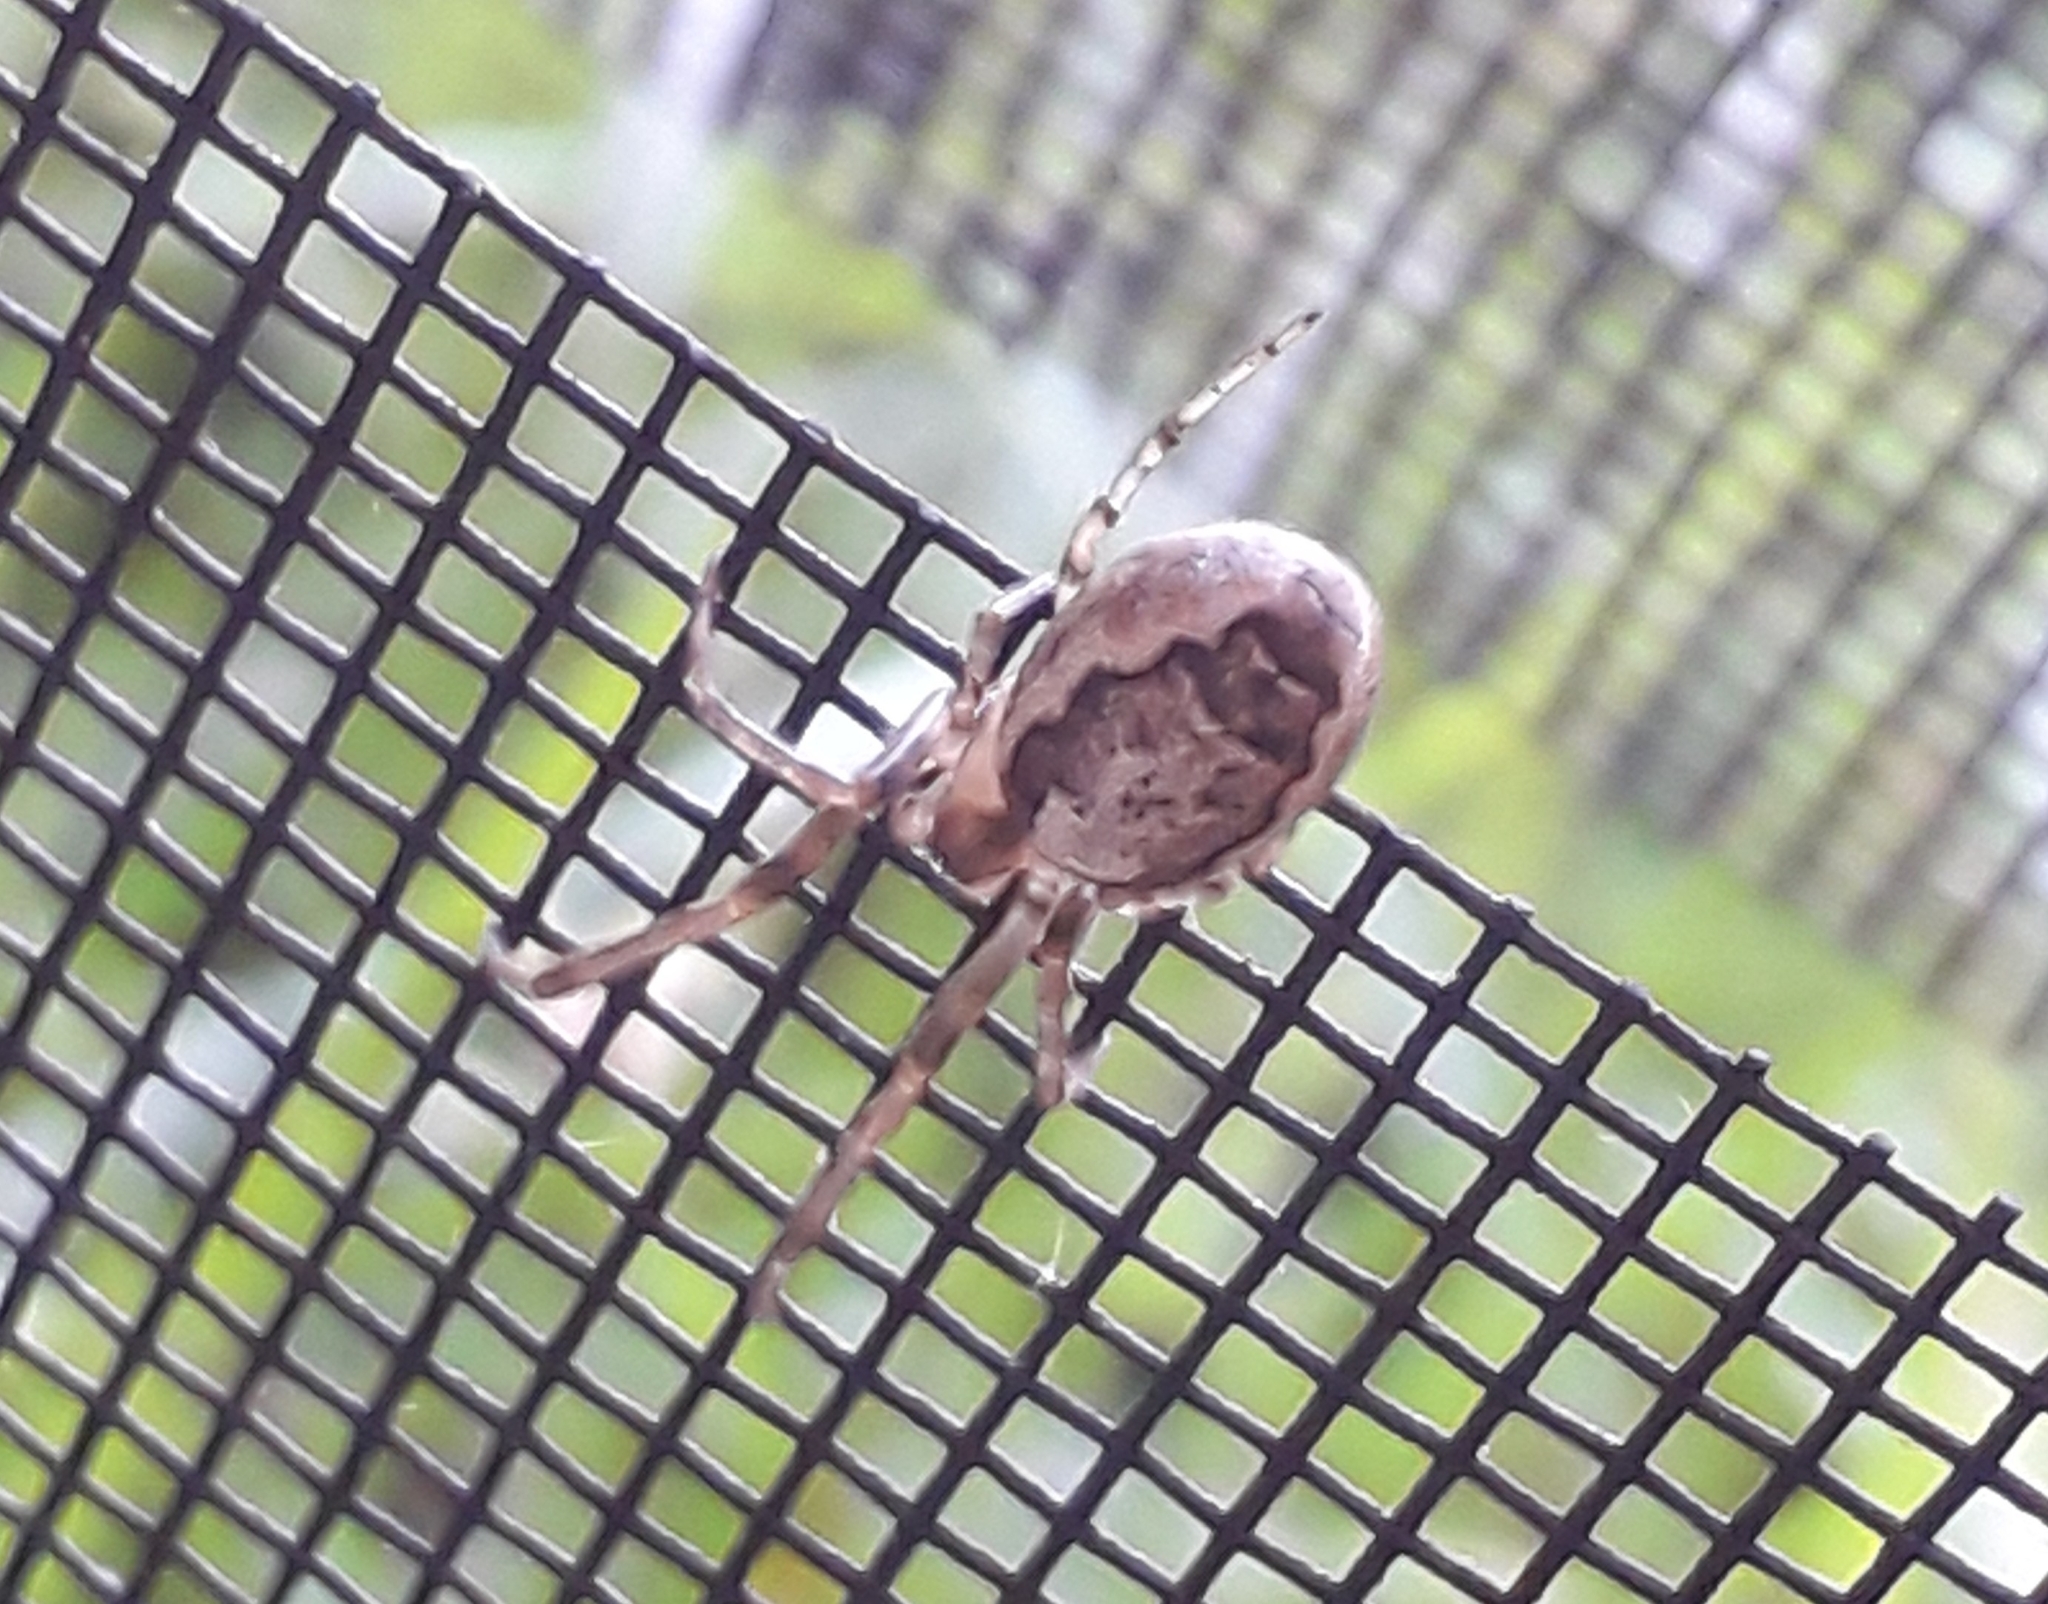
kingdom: Animalia
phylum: Arthropoda
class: Arachnida
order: Araneae
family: Araneidae
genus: Zygiella
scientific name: Zygiella x-notata
